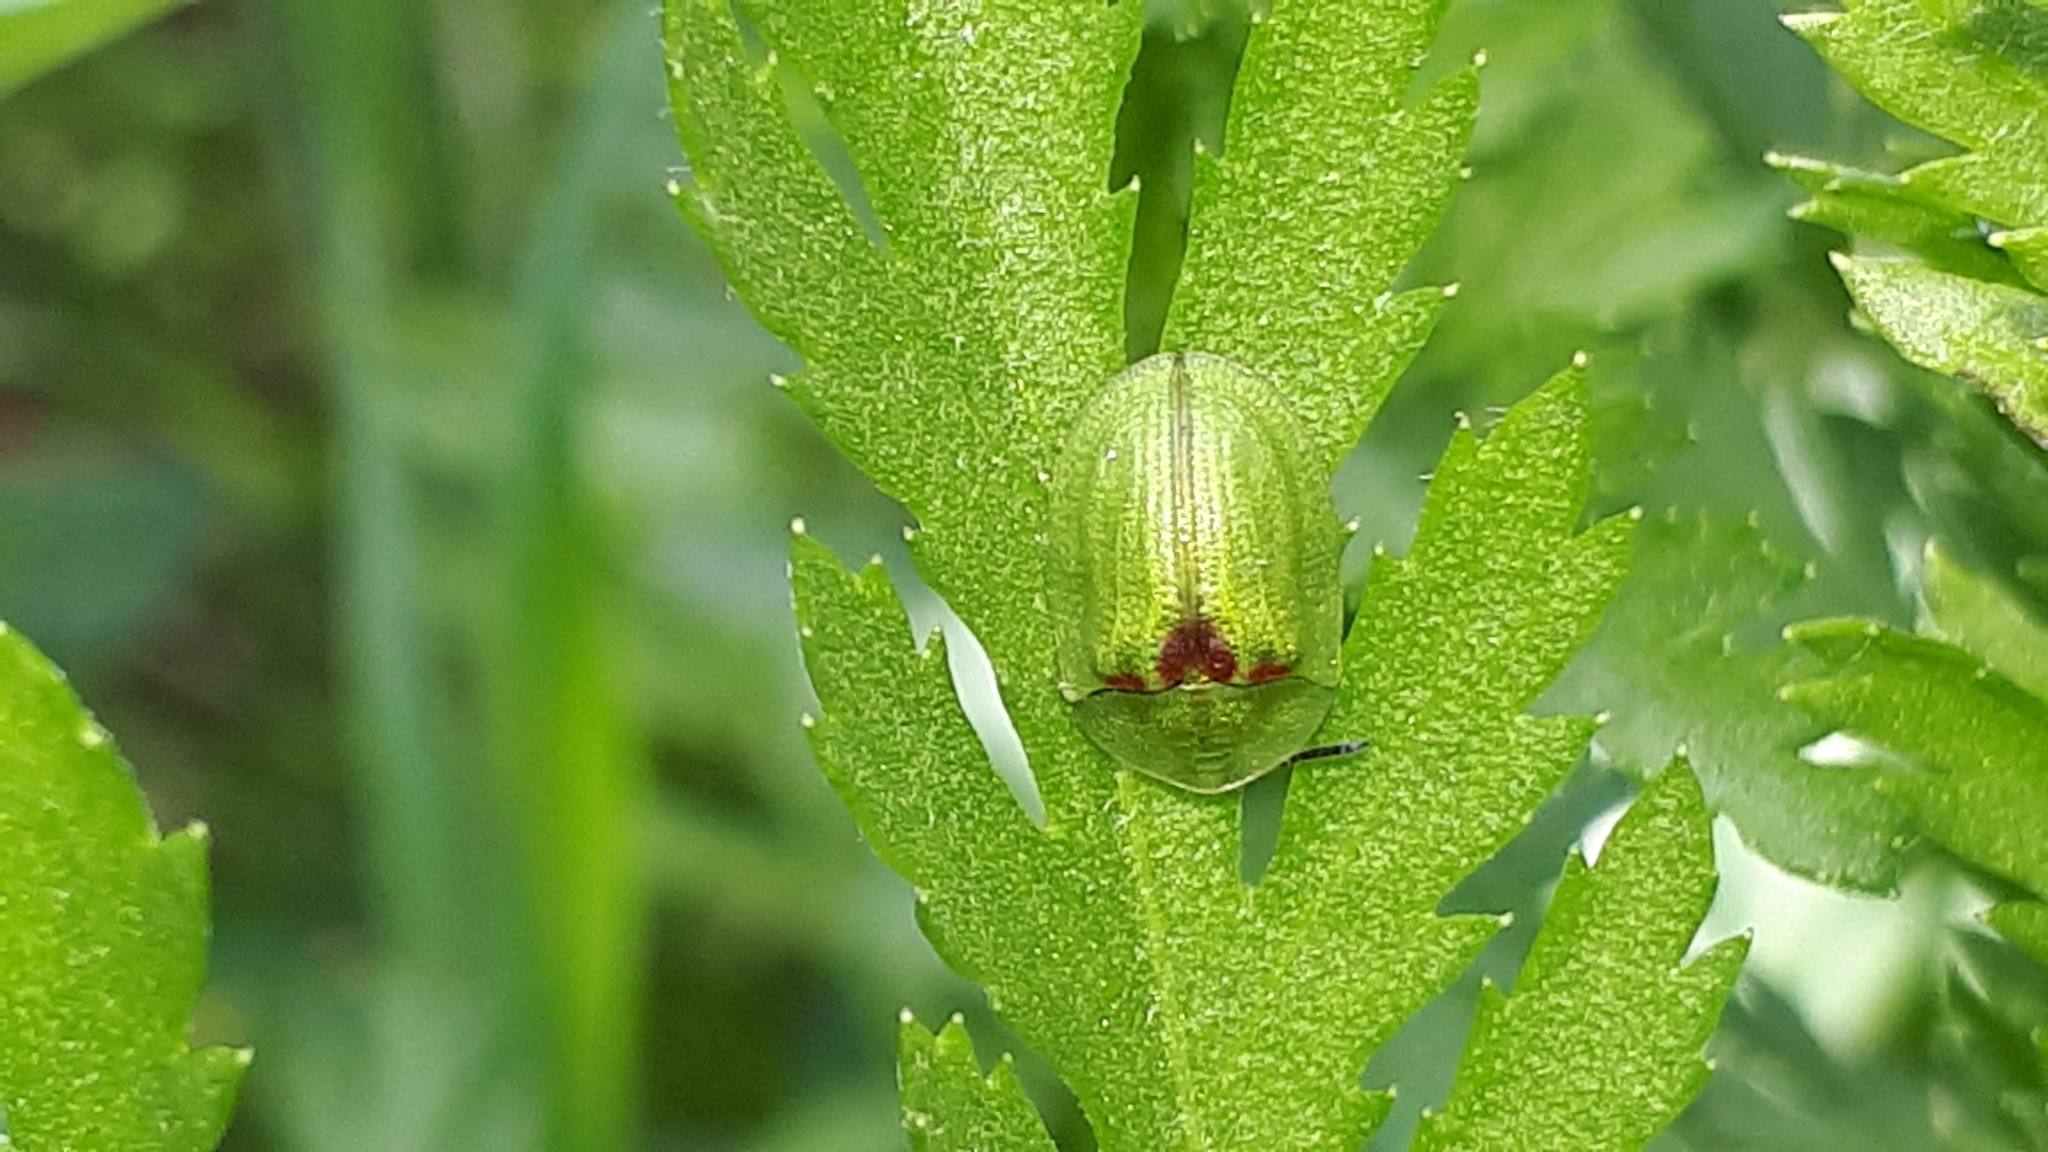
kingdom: Animalia
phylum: Arthropoda
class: Insecta
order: Coleoptera
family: Chrysomelidae
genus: Cassida
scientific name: Cassida stigmatica
